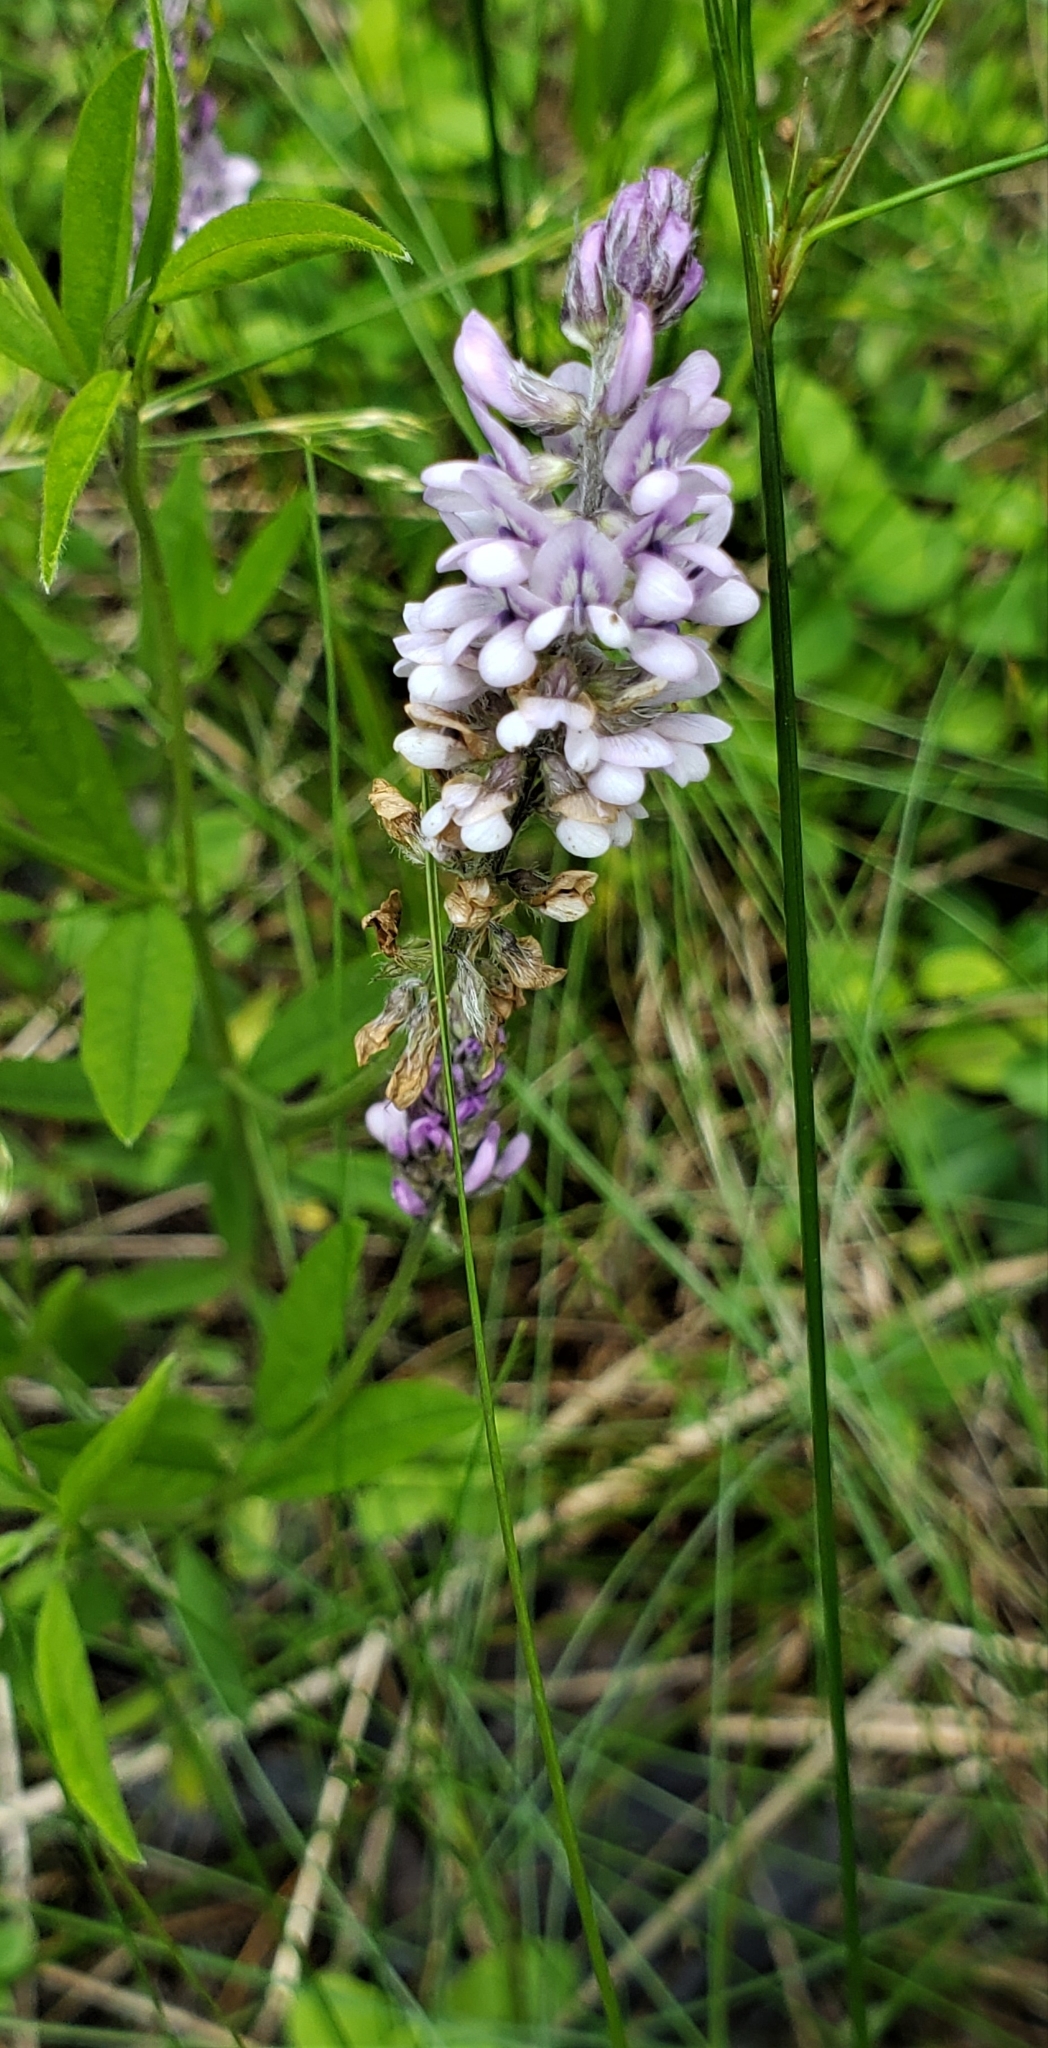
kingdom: Plantae
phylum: Tracheophyta
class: Magnoliopsida
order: Fabales
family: Fabaceae
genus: Orbexilum
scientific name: Orbexilum pedunculatum
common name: Sampson's snakeroot
